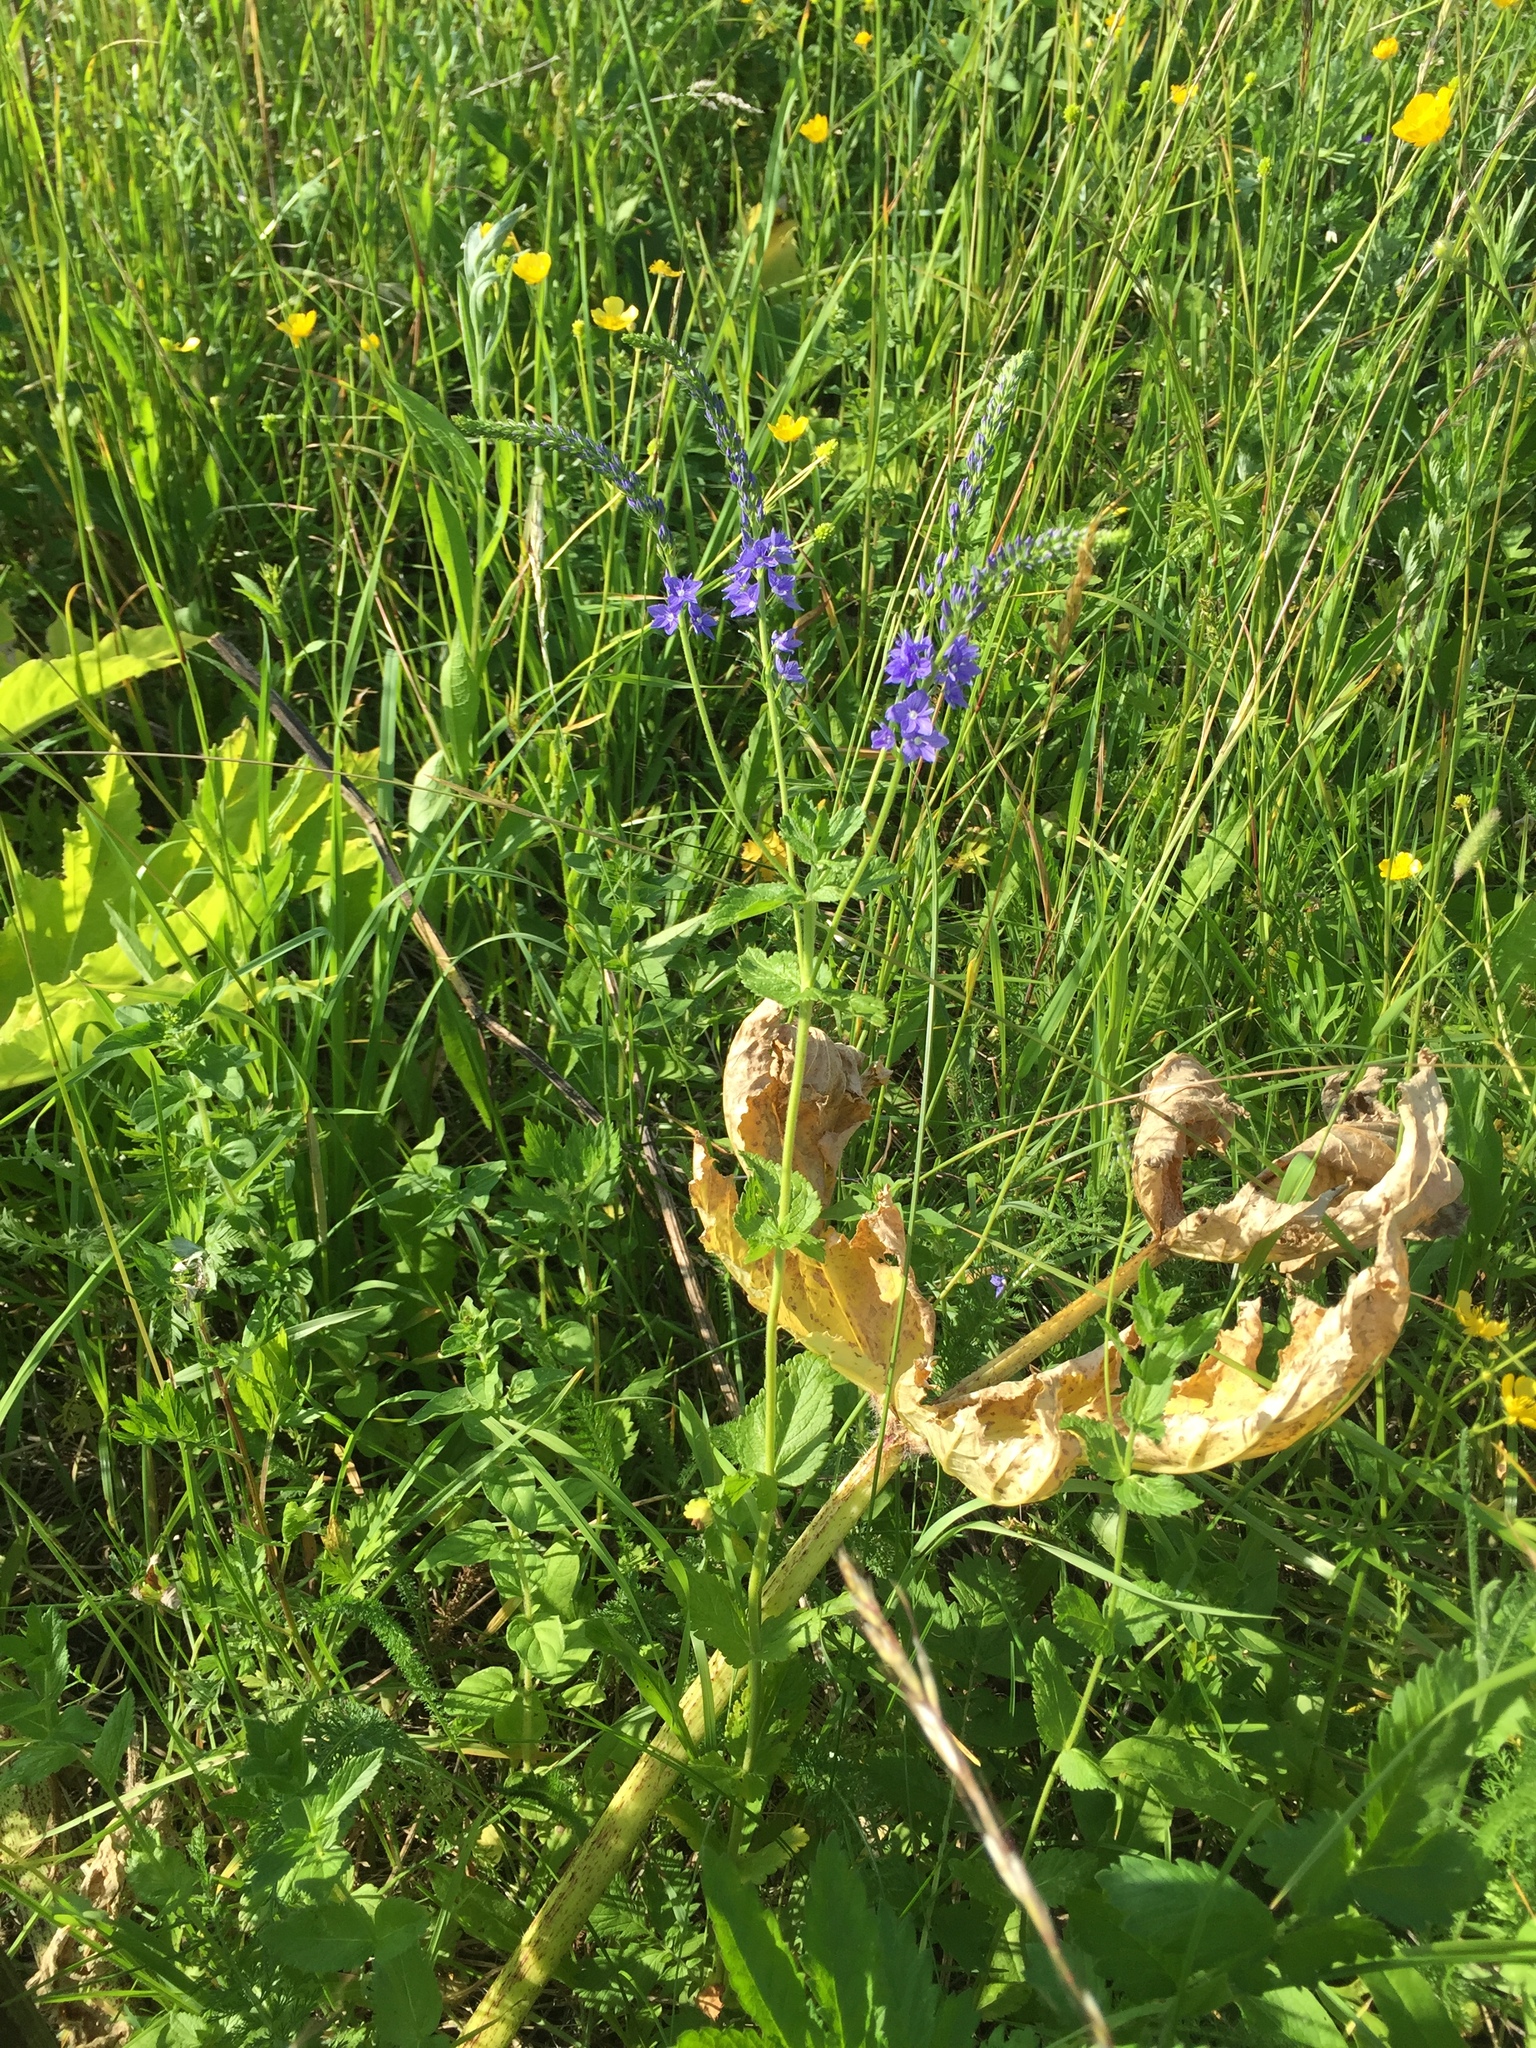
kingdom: Plantae
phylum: Tracheophyta
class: Magnoliopsida
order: Lamiales
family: Plantaginaceae
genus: Veronica
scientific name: Veronica teucrium
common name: Large speedwell
